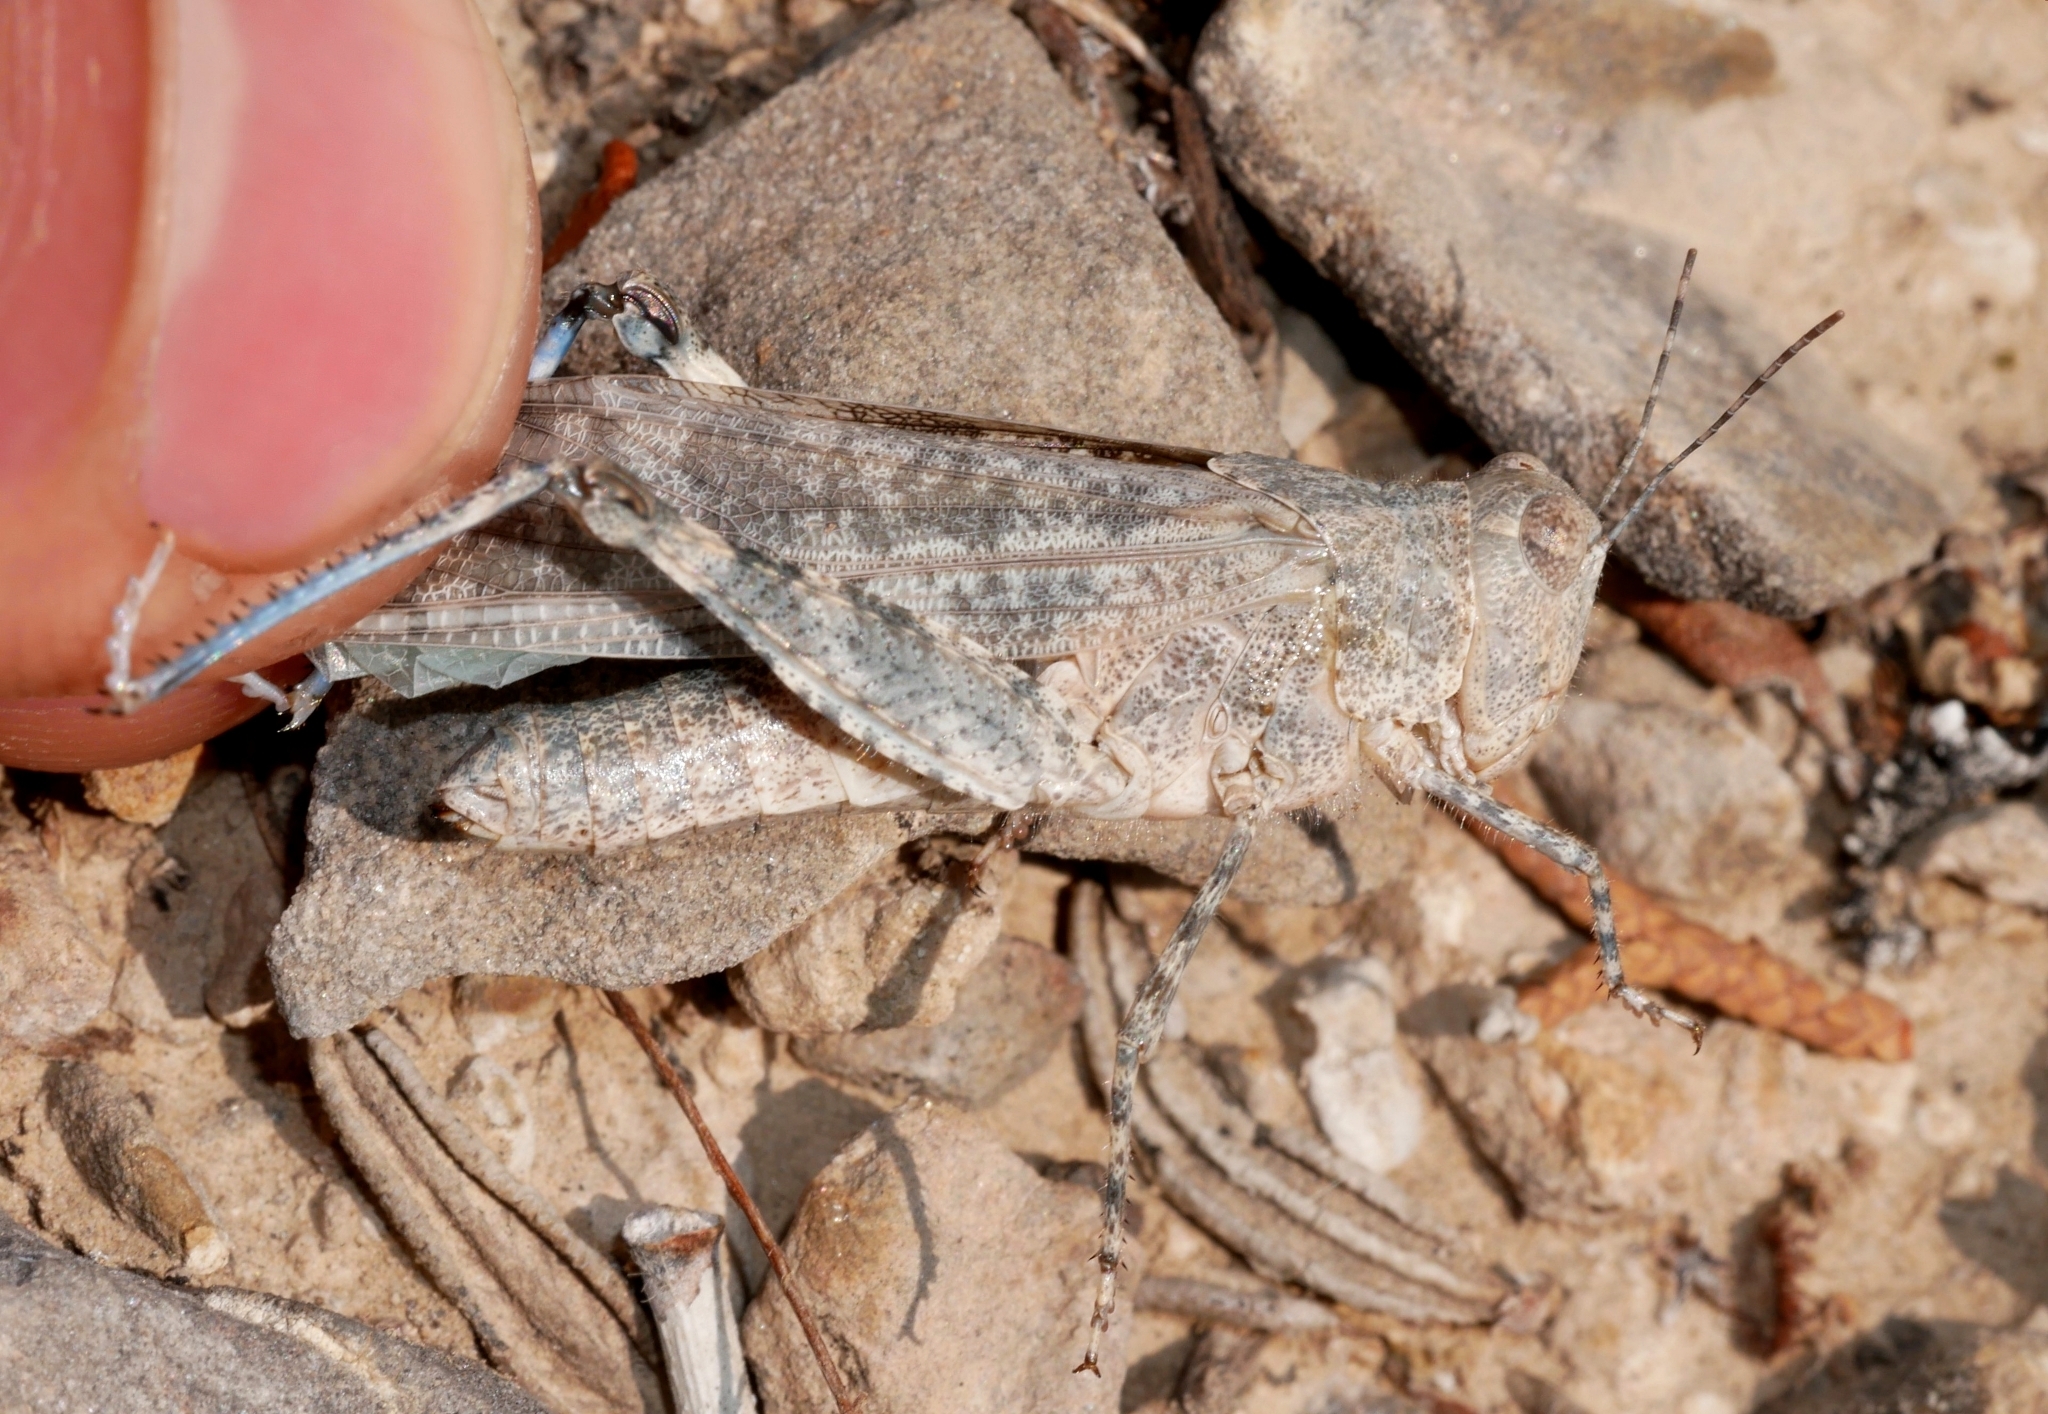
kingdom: Animalia
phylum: Arthropoda
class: Insecta
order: Orthoptera
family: Acrididae
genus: Circotettix
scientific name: Circotettix undulatus
